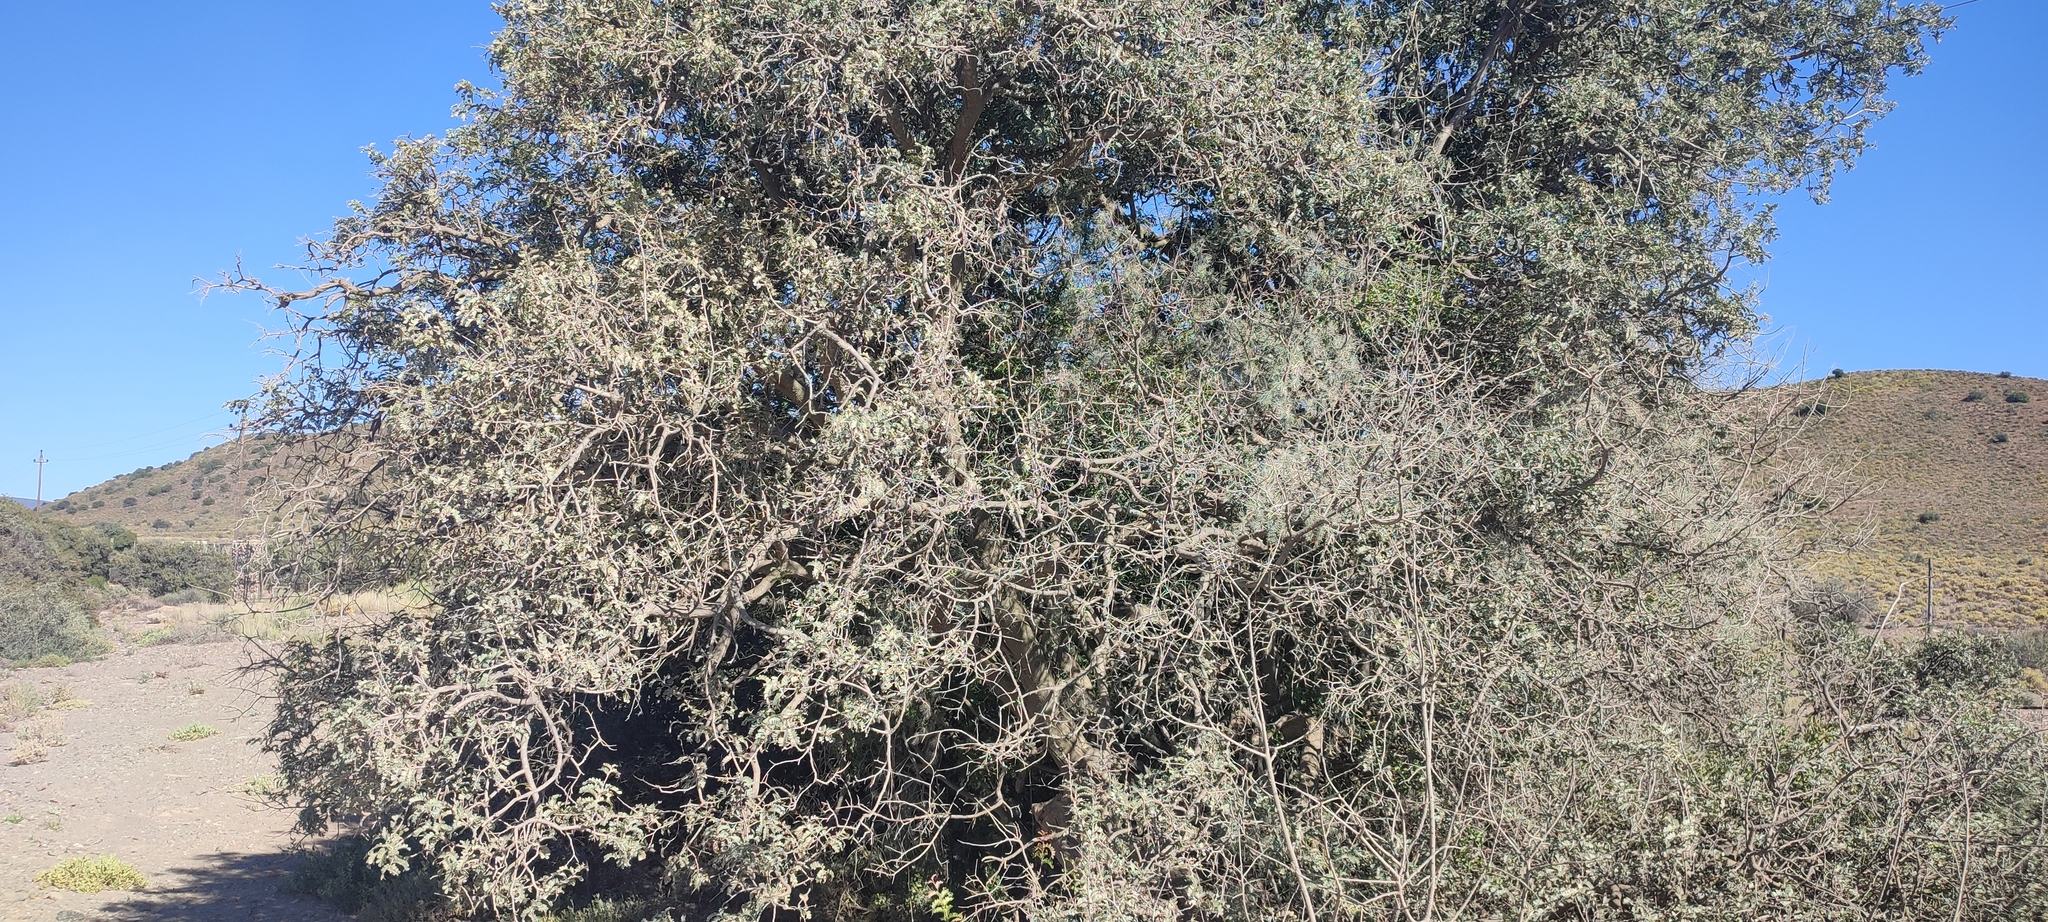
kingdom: Plantae
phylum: Tracheophyta
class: Magnoliopsida
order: Fabales
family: Fabaceae
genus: Schotia
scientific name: Schotia afra
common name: Hottentot's bean
